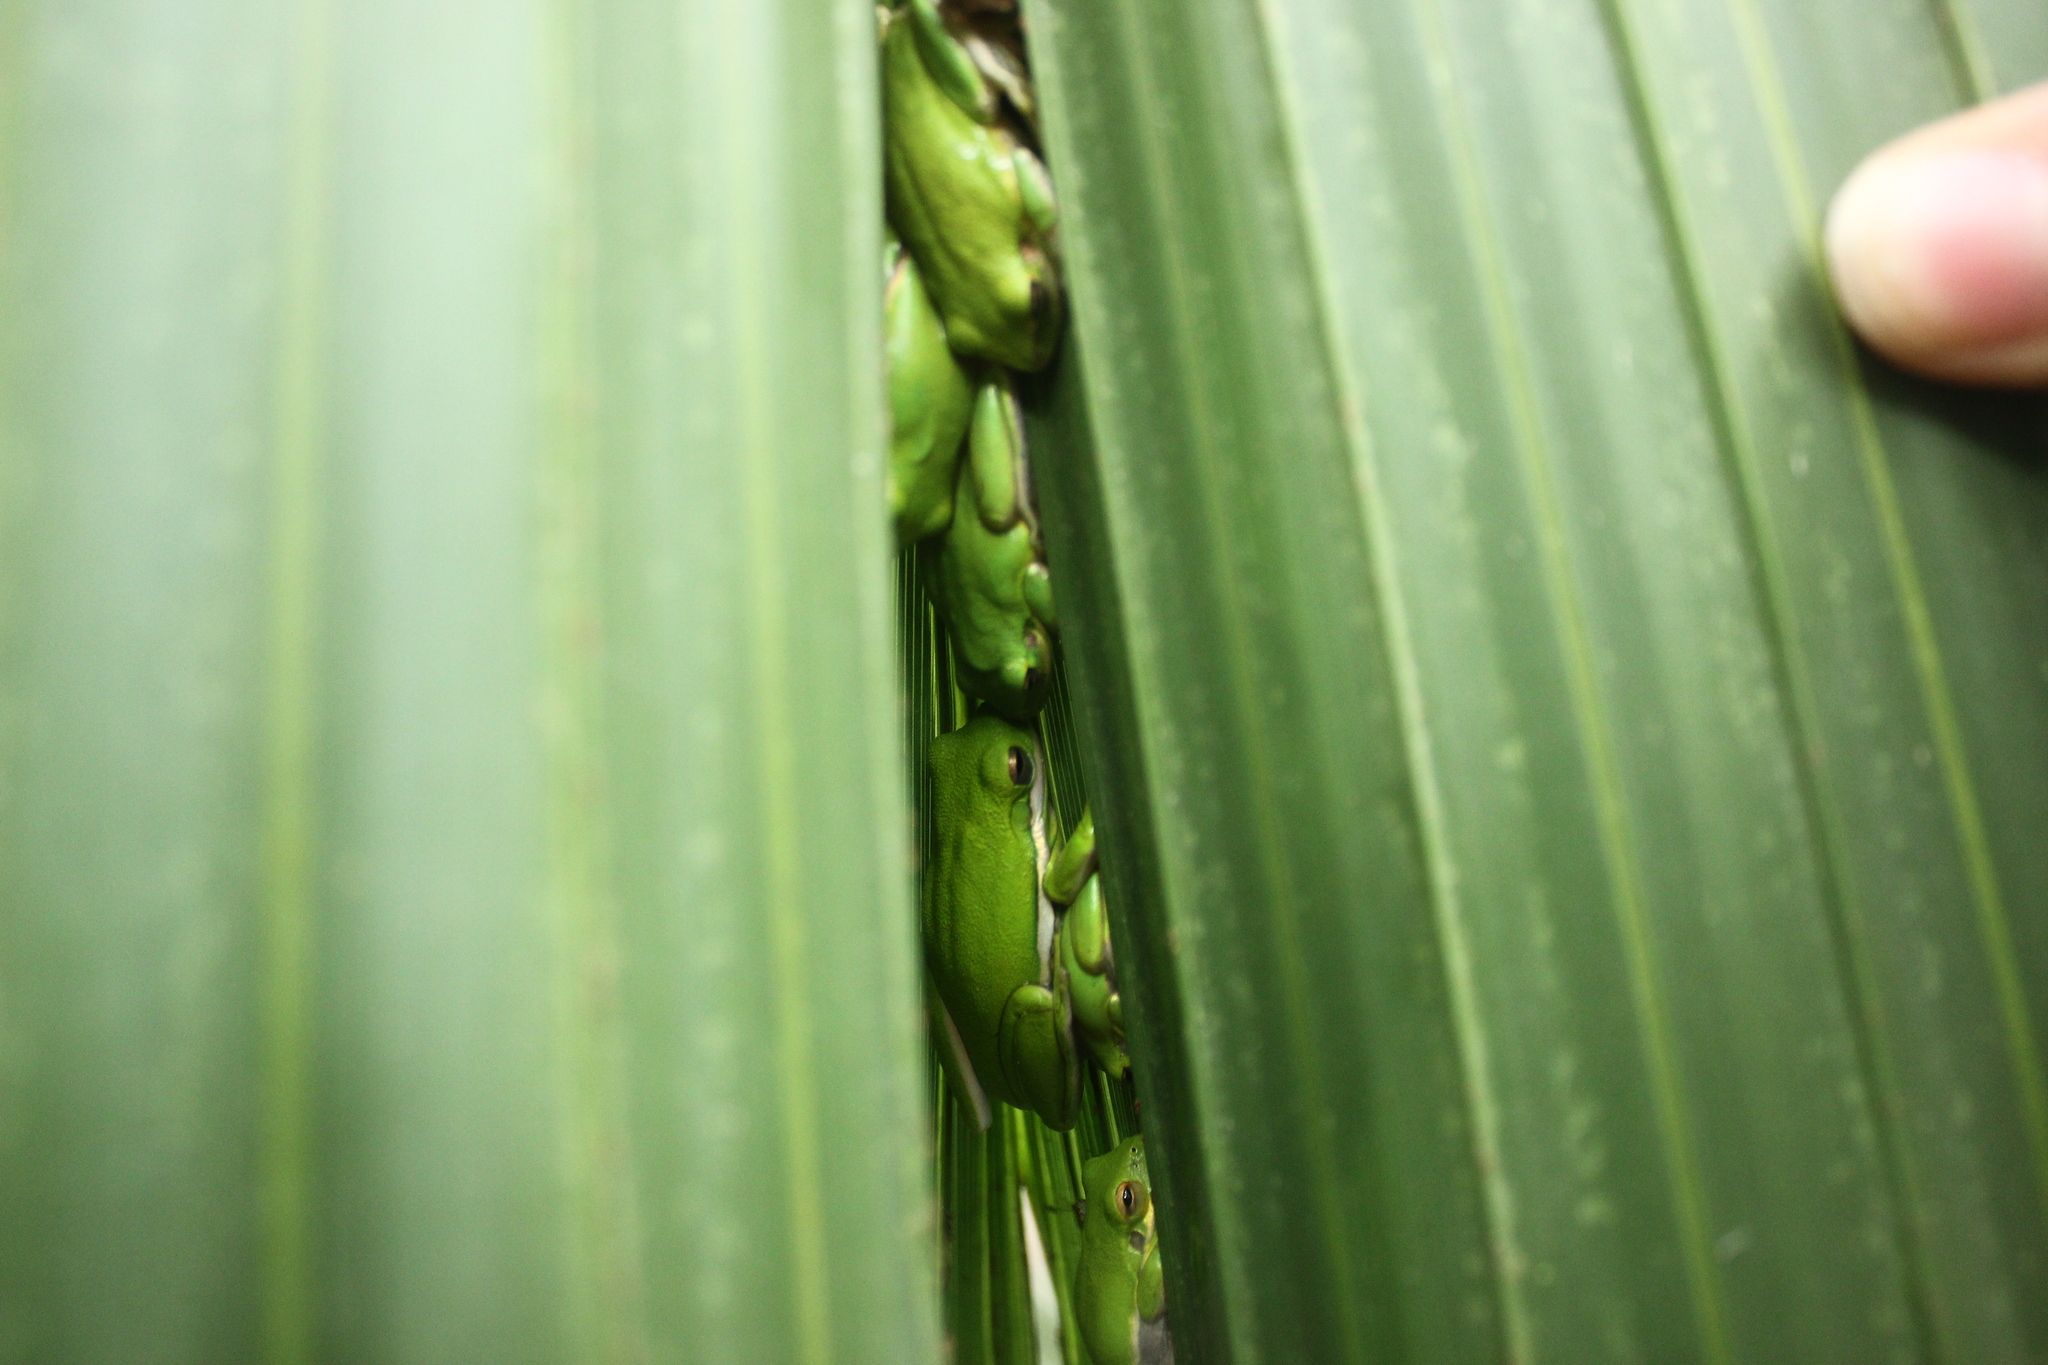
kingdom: Animalia
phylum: Chordata
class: Amphibia
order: Anura
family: Hylidae
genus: Dryophytes
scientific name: Dryophytes cinereus
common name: Green treefrog
